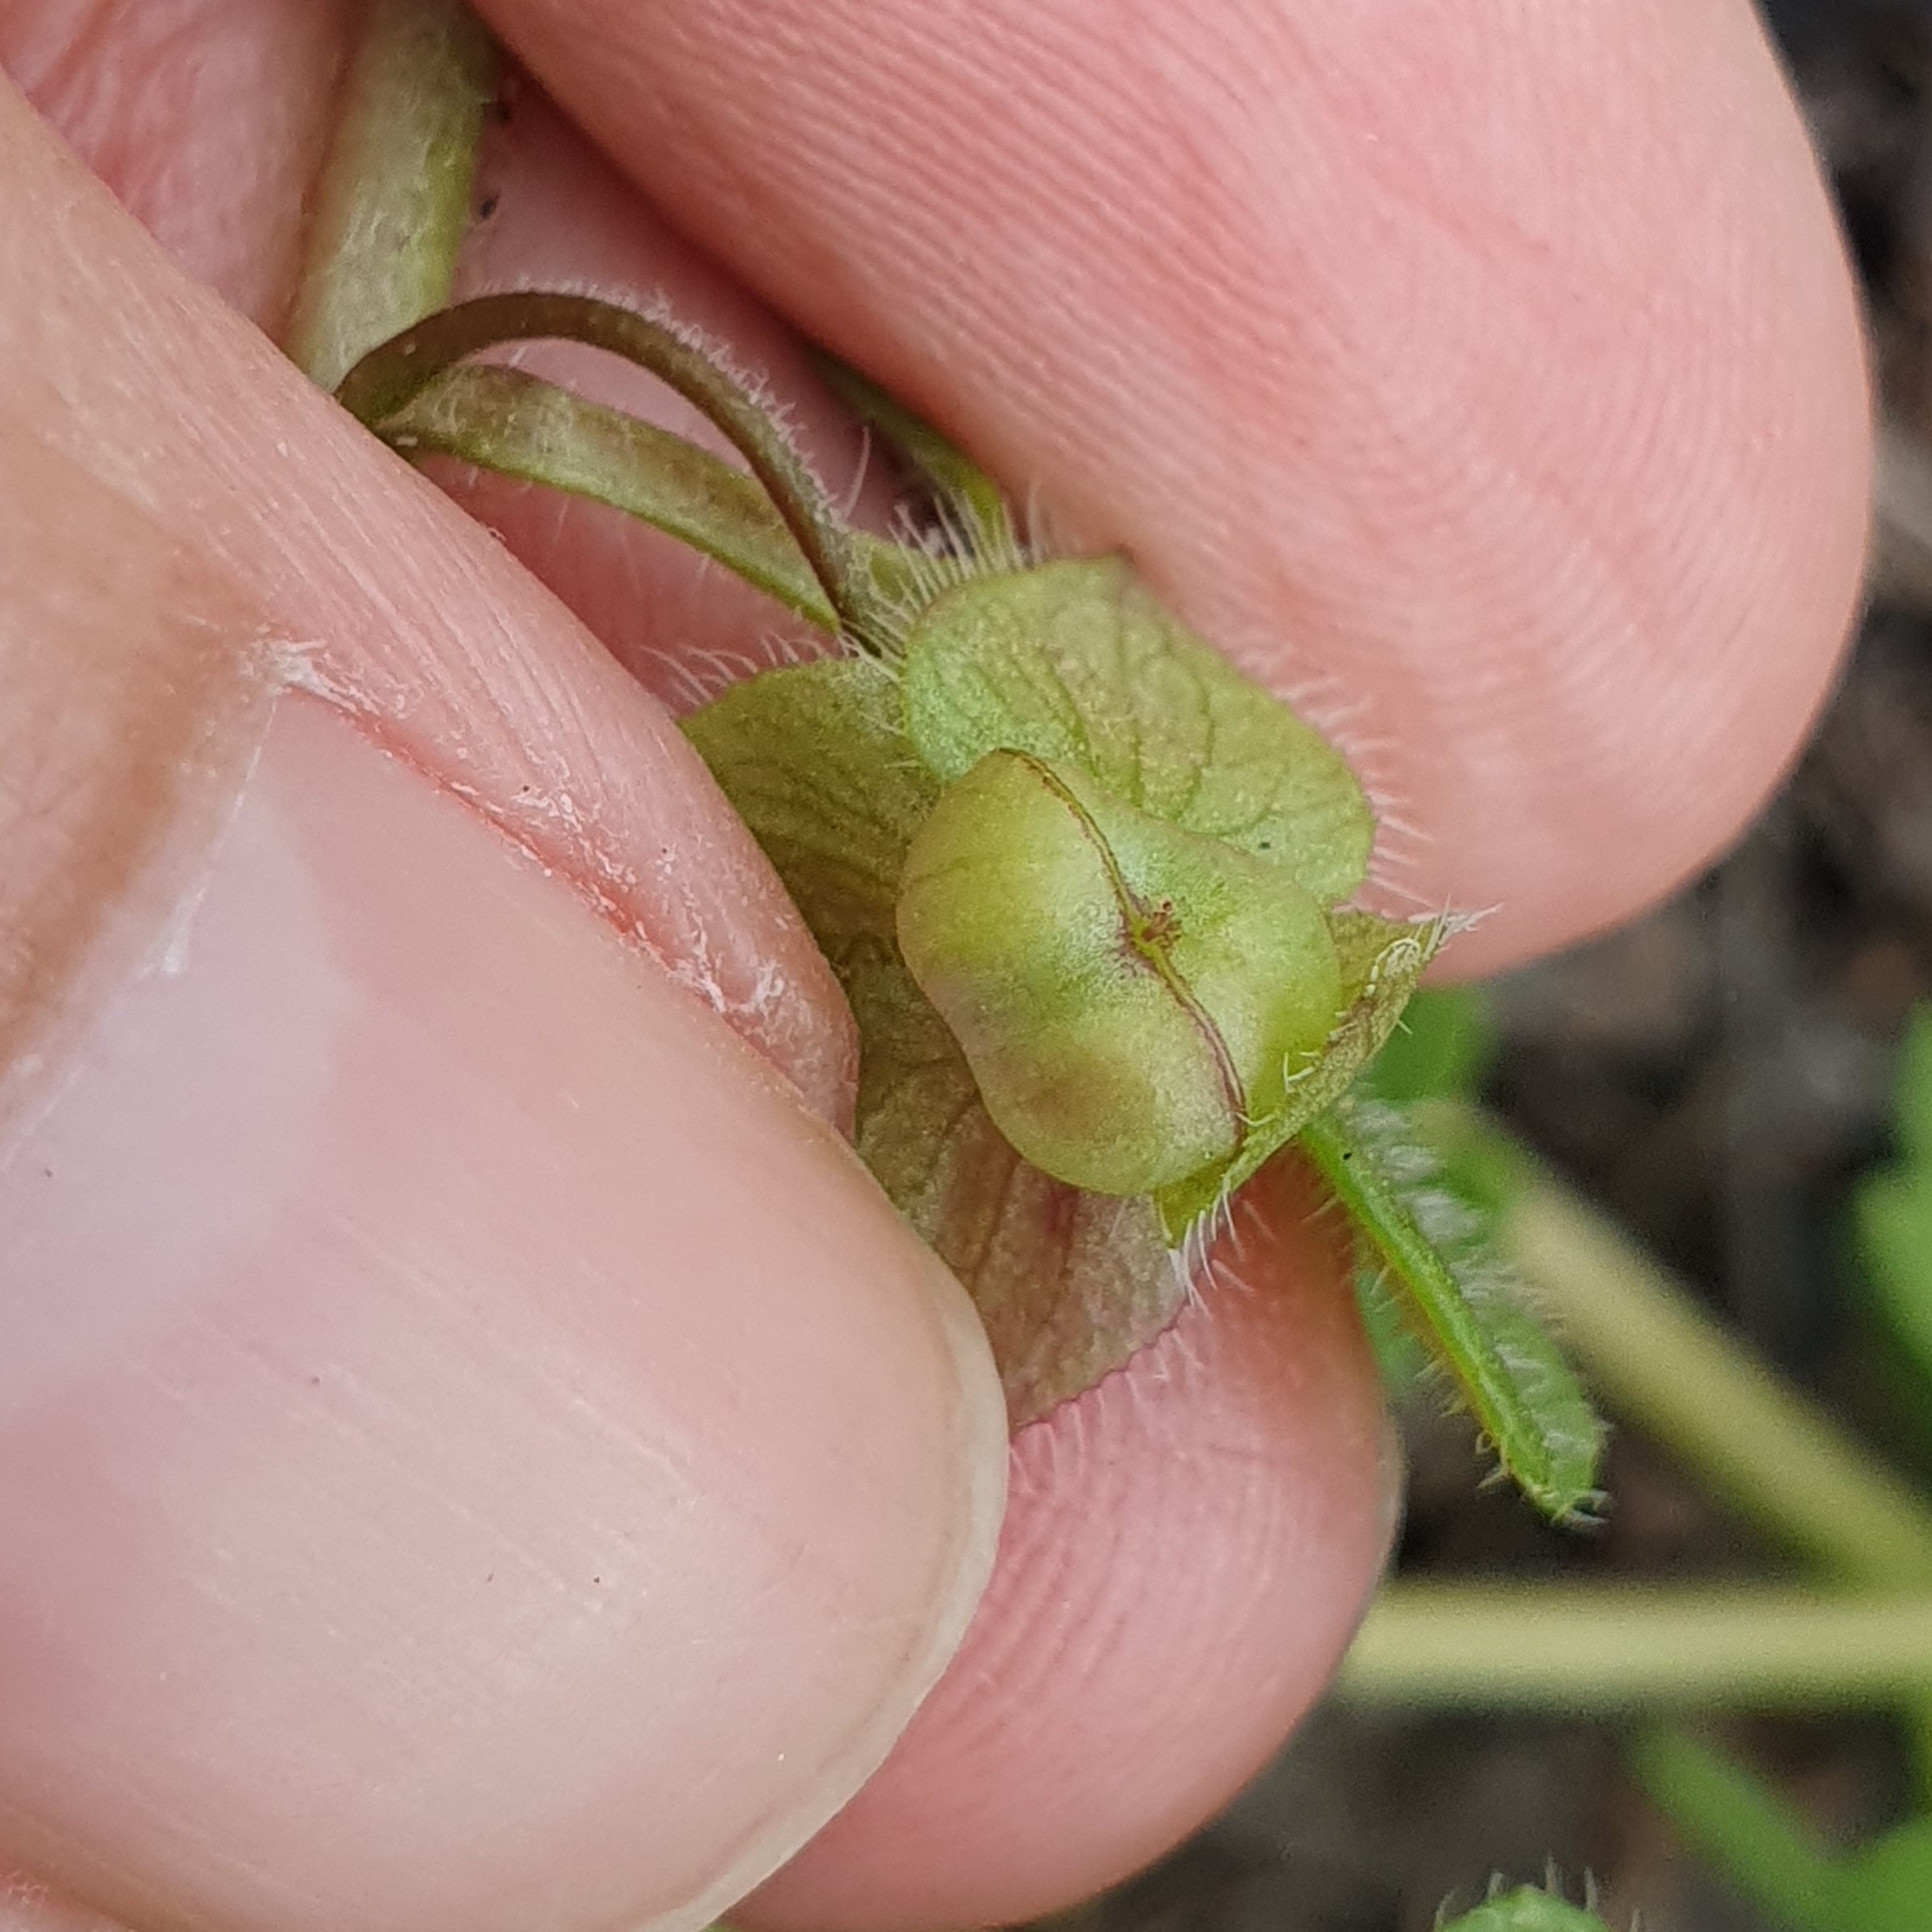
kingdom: Plantae
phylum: Tracheophyta
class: Magnoliopsida
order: Lamiales
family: Plantaginaceae
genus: Veronica
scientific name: Veronica hederifolia
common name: Ivy-leaved speedwell
